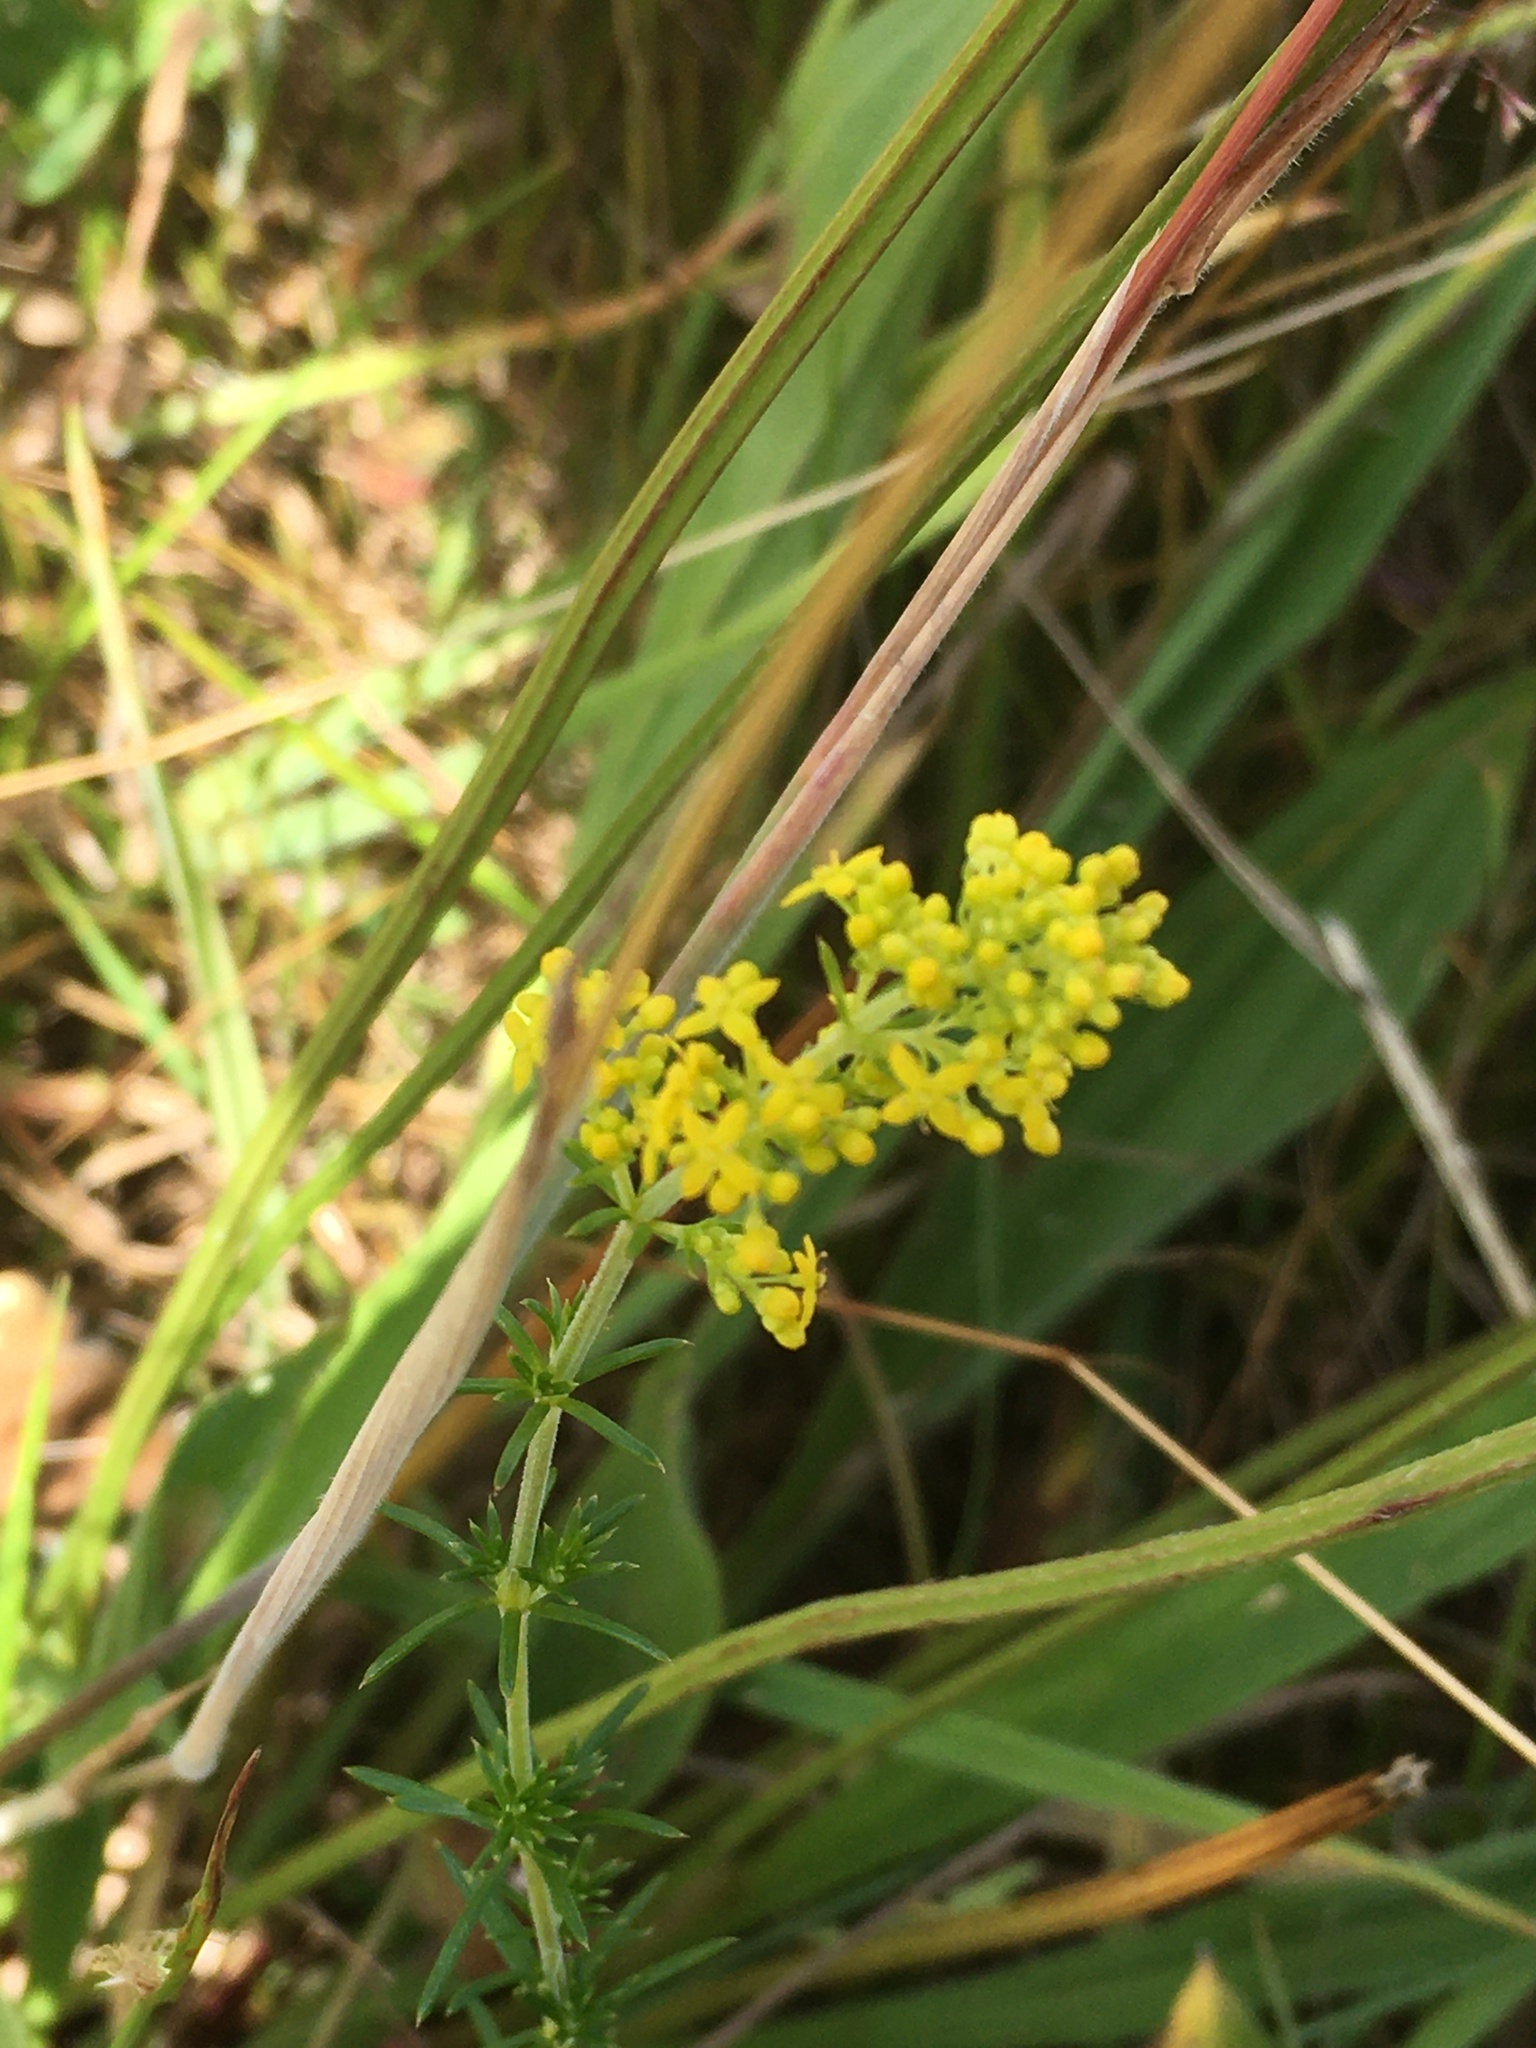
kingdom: Plantae
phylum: Tracheophyta
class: Magnoliopsida
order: Gentianales
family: Rubiaceae
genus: Galium
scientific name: Galium verum
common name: Lady's bedstraw
